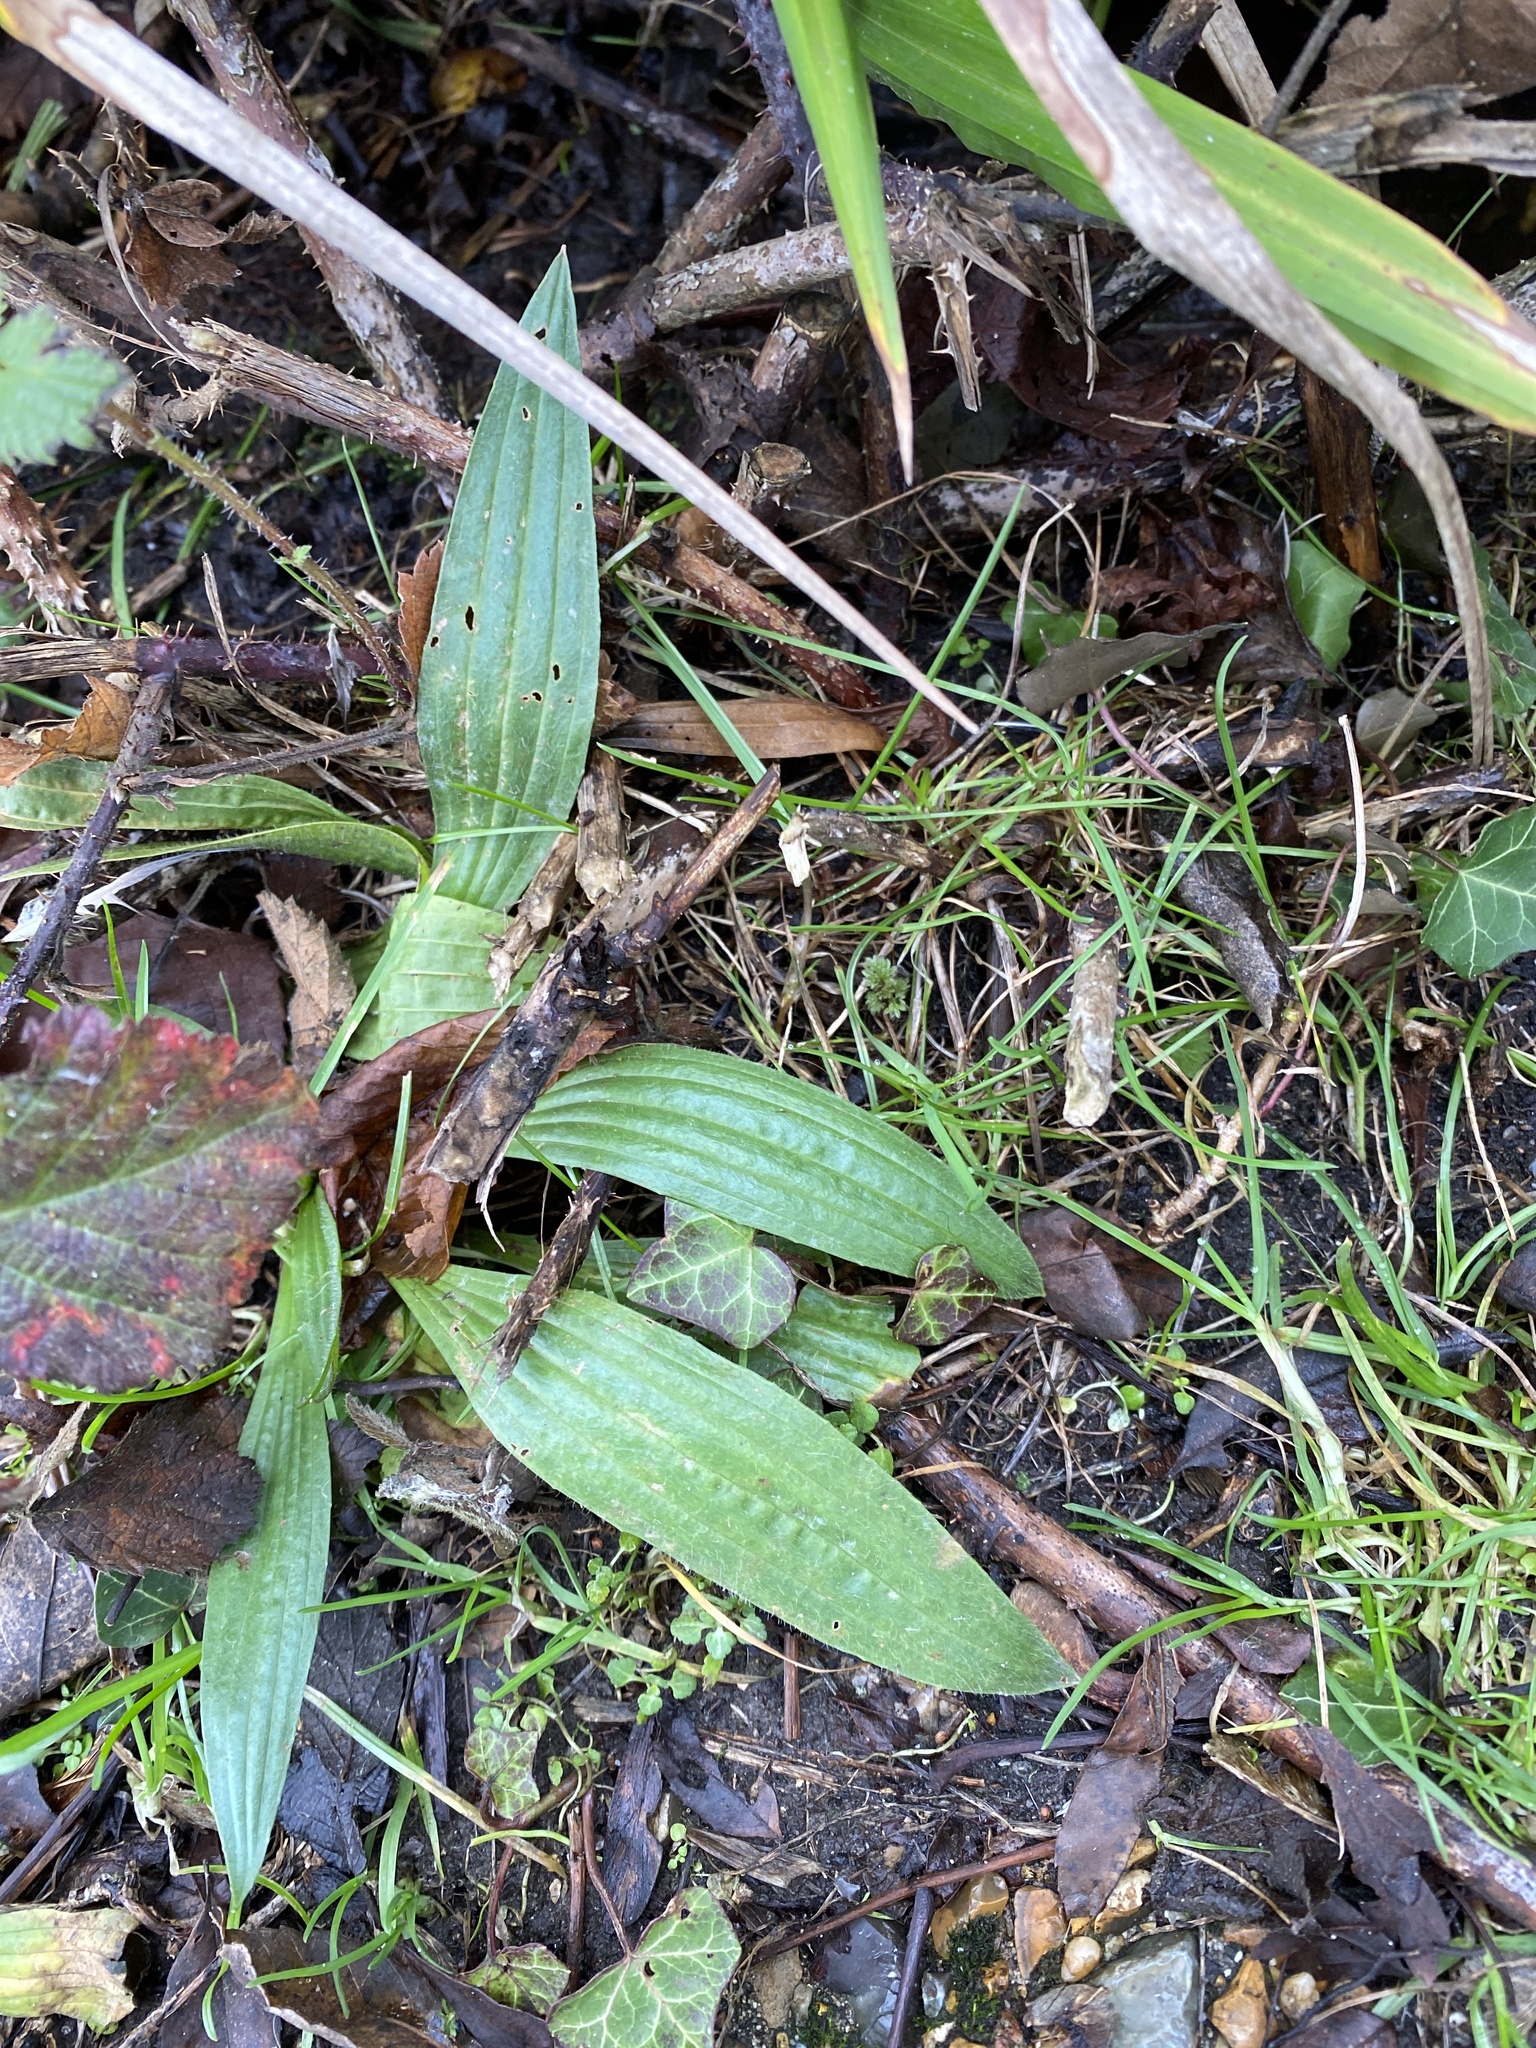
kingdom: Plantae
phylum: Tracheophyta
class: Magnoliopsida
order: Lamiales
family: Plantaginaceae
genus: Plantago
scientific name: Plantago lanceolata
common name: Ribwort plantain
